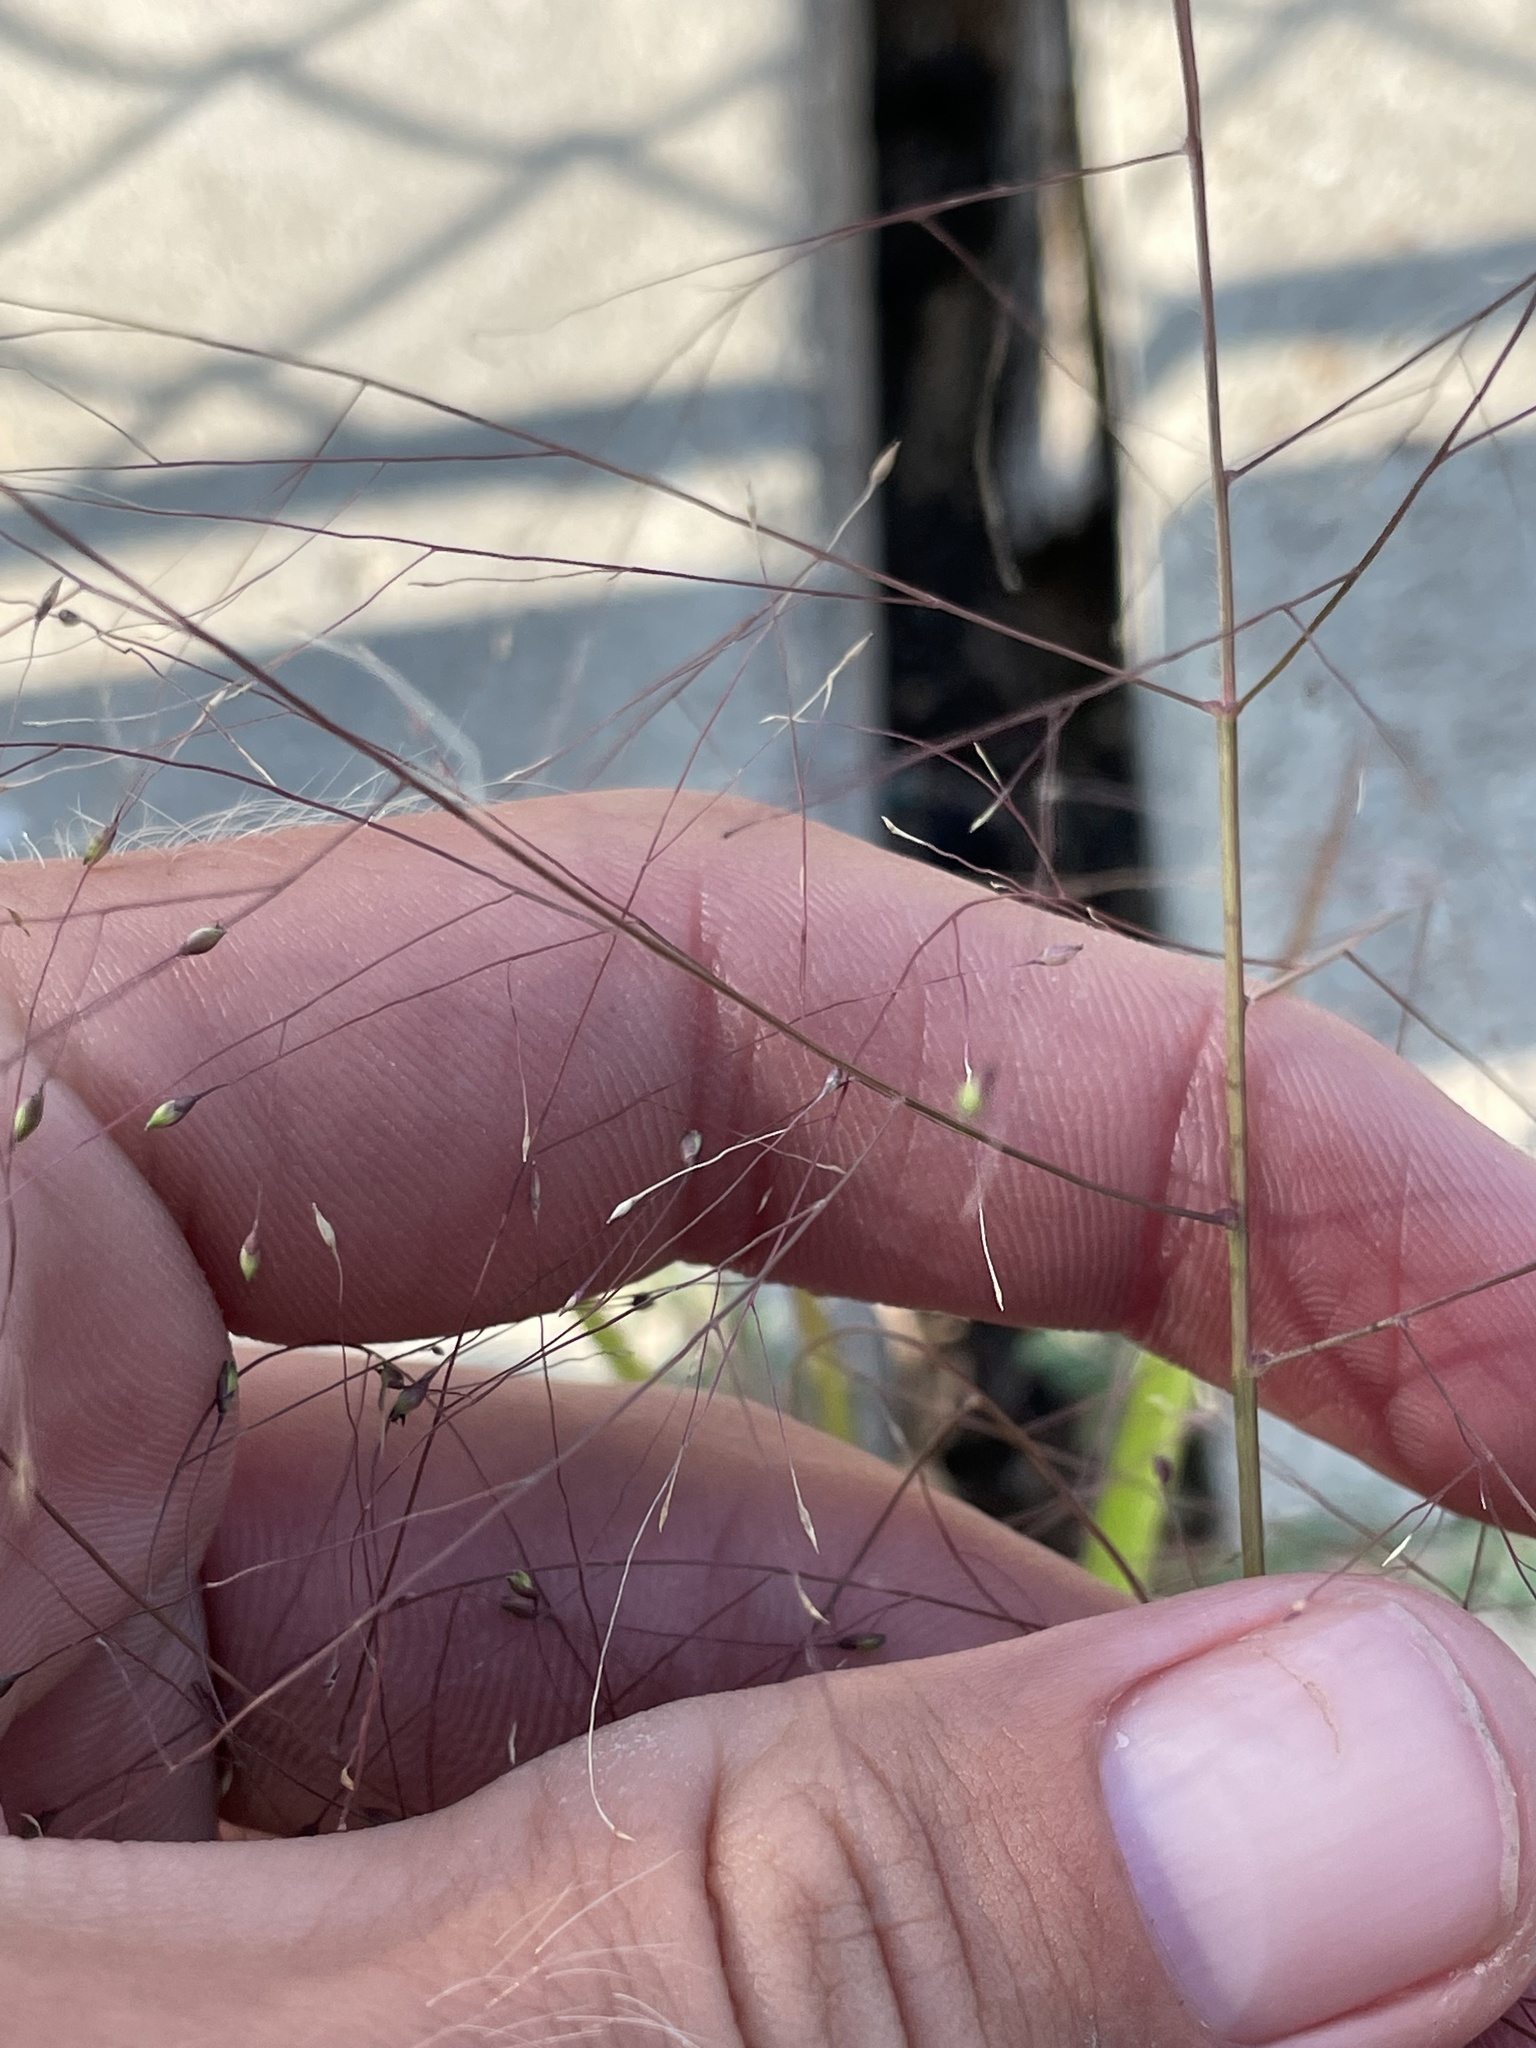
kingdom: Plantae
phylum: Tracheophyta
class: Liliopsida
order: Poales
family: Poaceae
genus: Panicum
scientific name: Panicum capillare
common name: Witch-grass
